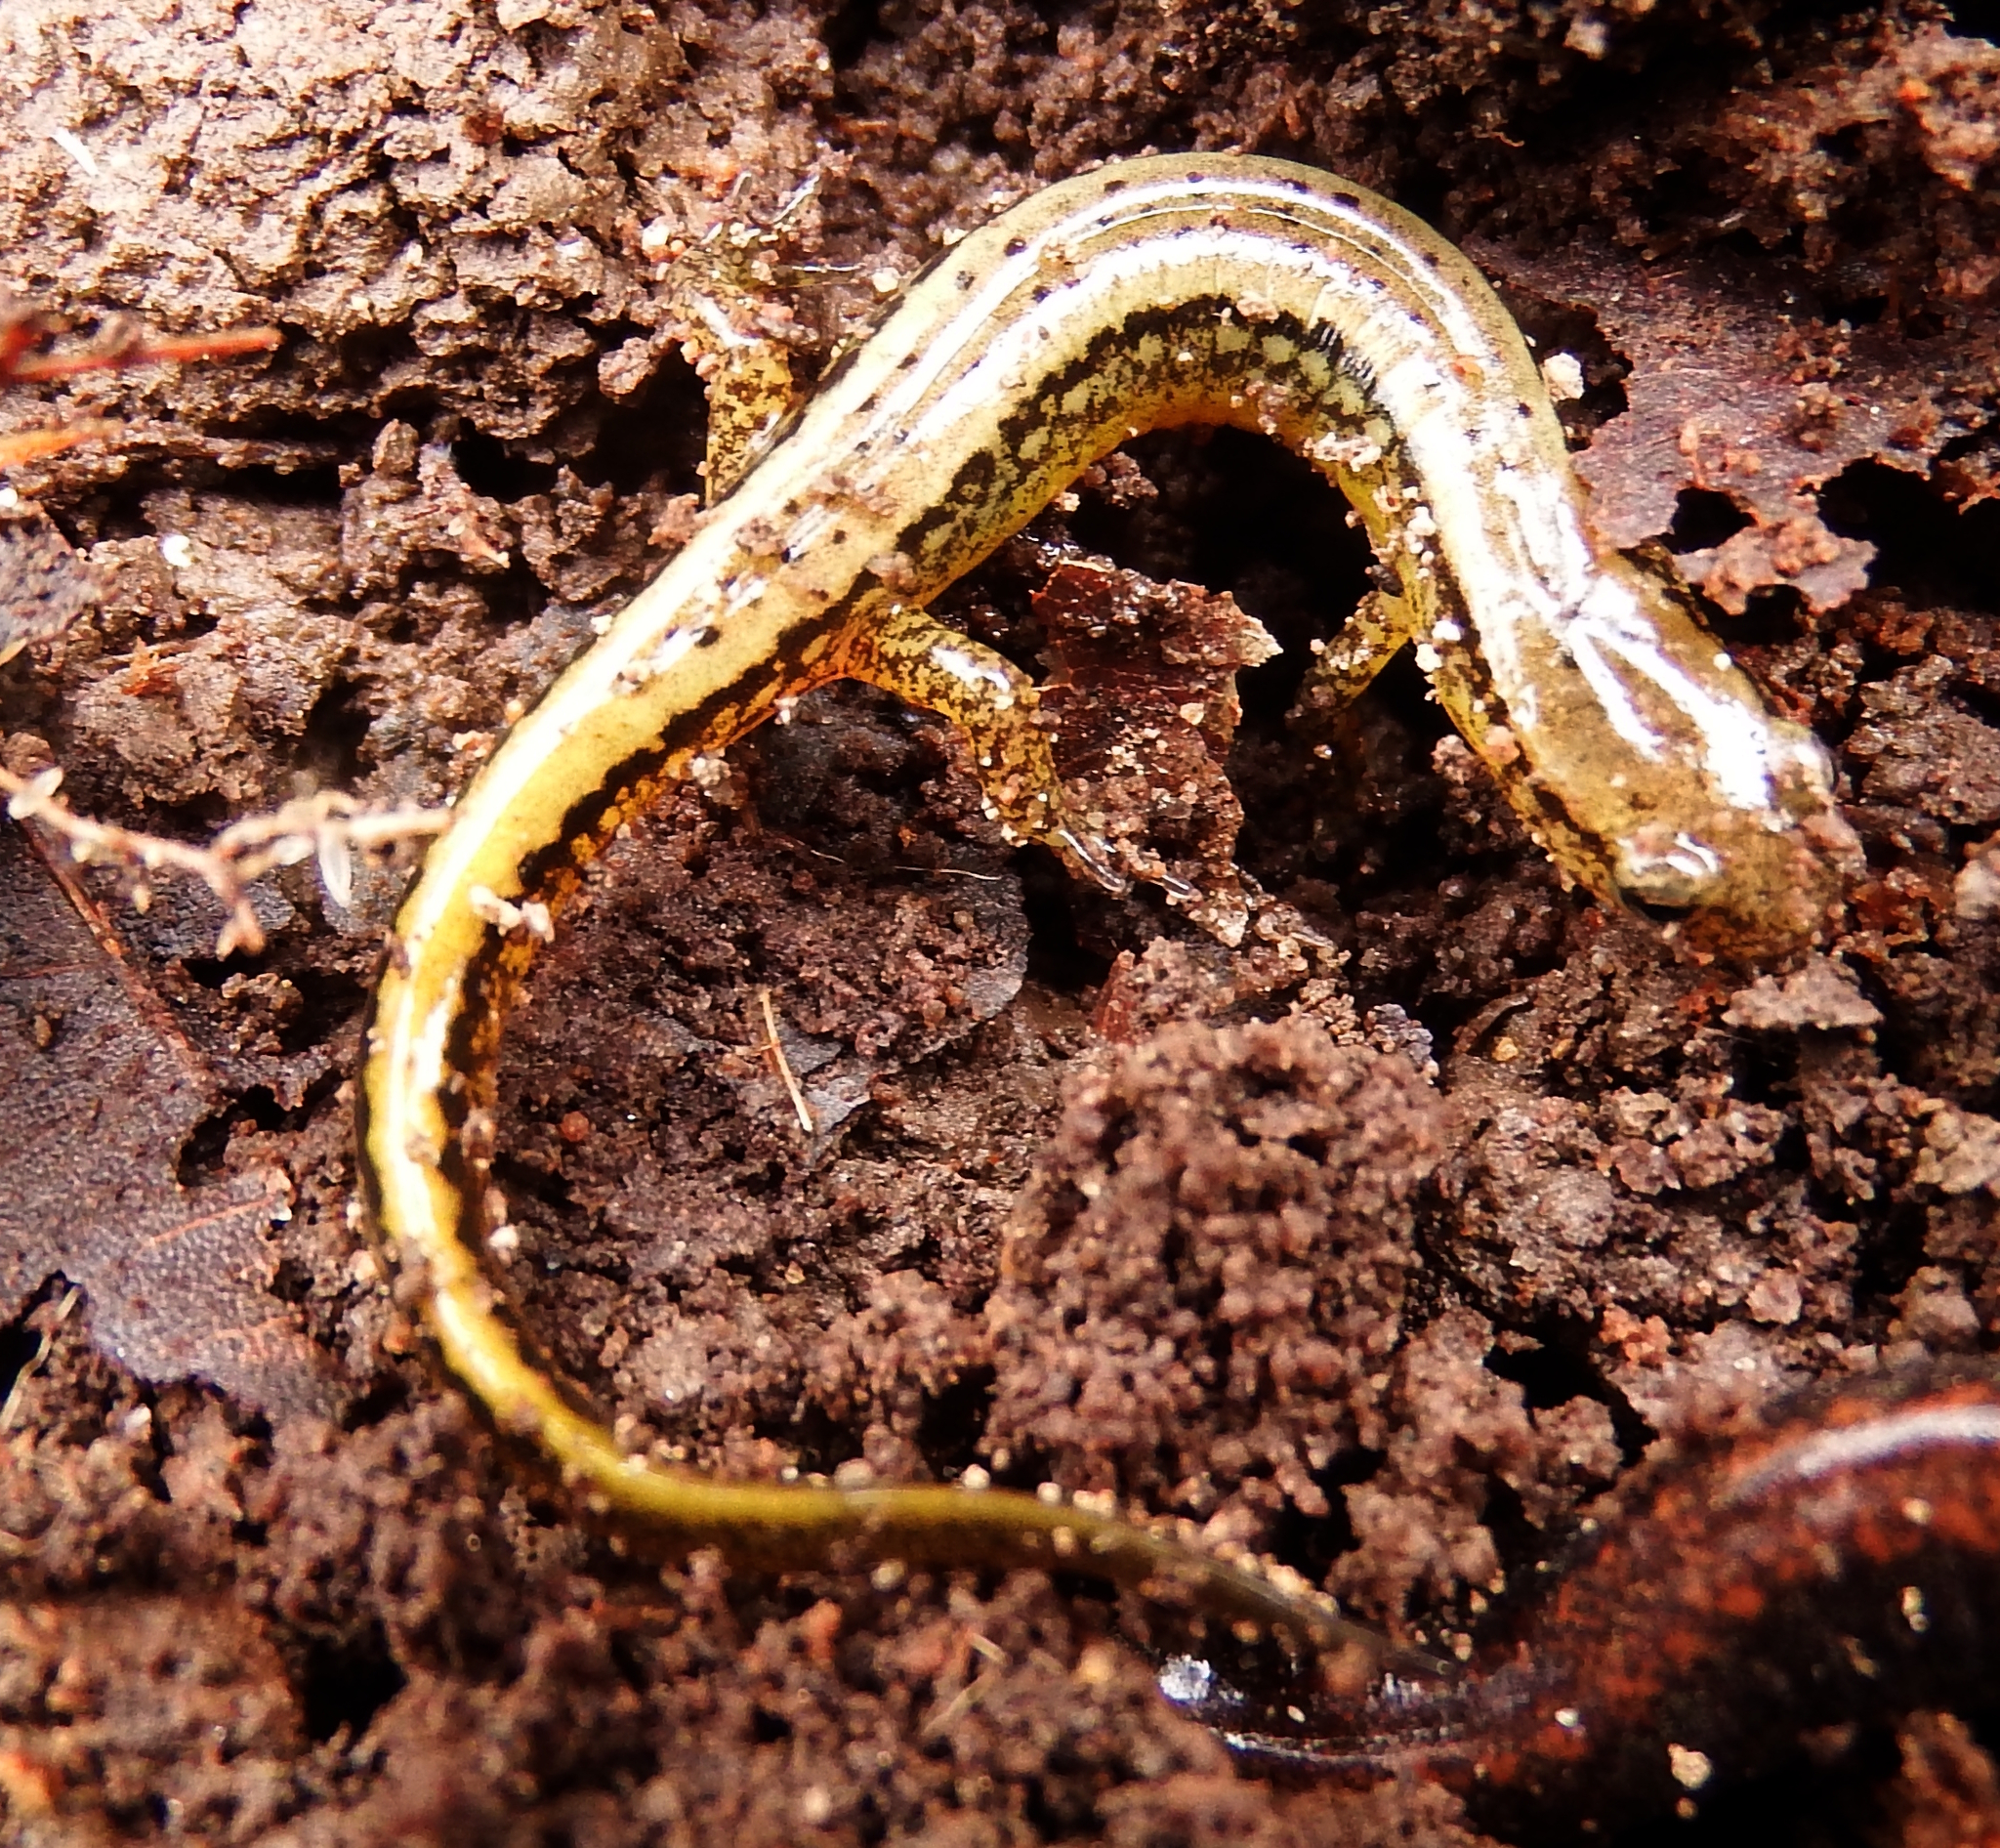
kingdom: Animalia
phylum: Chordata
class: Amphibia
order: Caudata
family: Plethodontidae
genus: Eurycea
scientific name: Eurycea cirrigera
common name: Southern two-lined salamander
